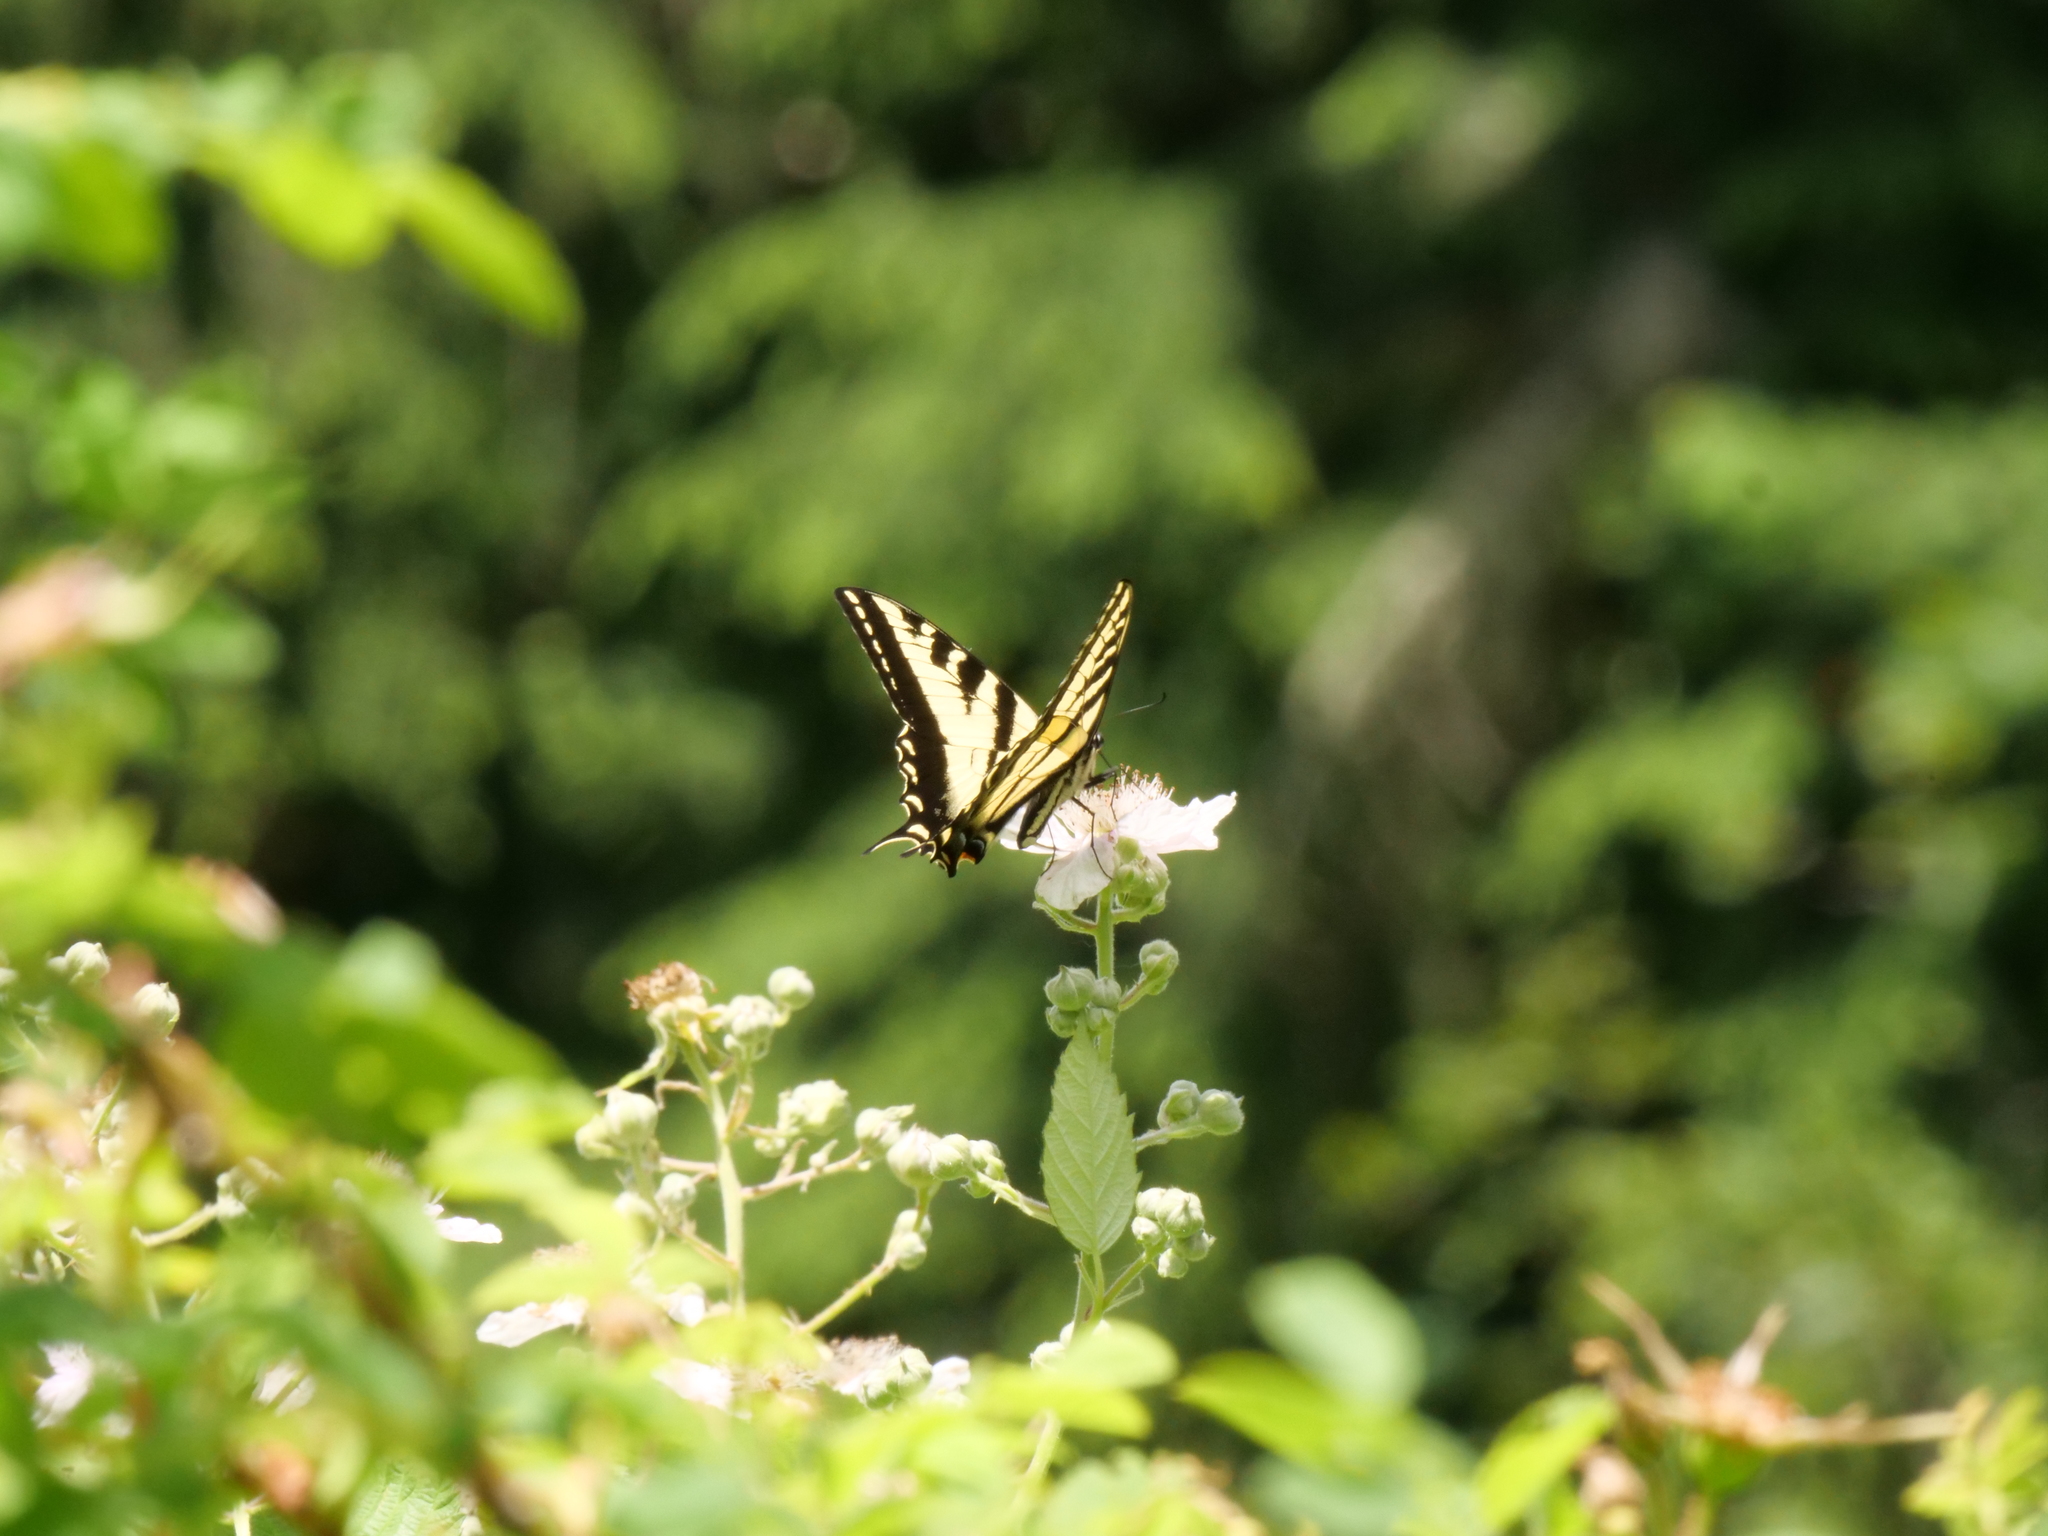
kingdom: Animalia
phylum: Arthropoda
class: Insecta
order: Lepidoptera
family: Papilionidae
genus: Papilio
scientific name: Papilio rutulus
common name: Western tiger swallowtail
